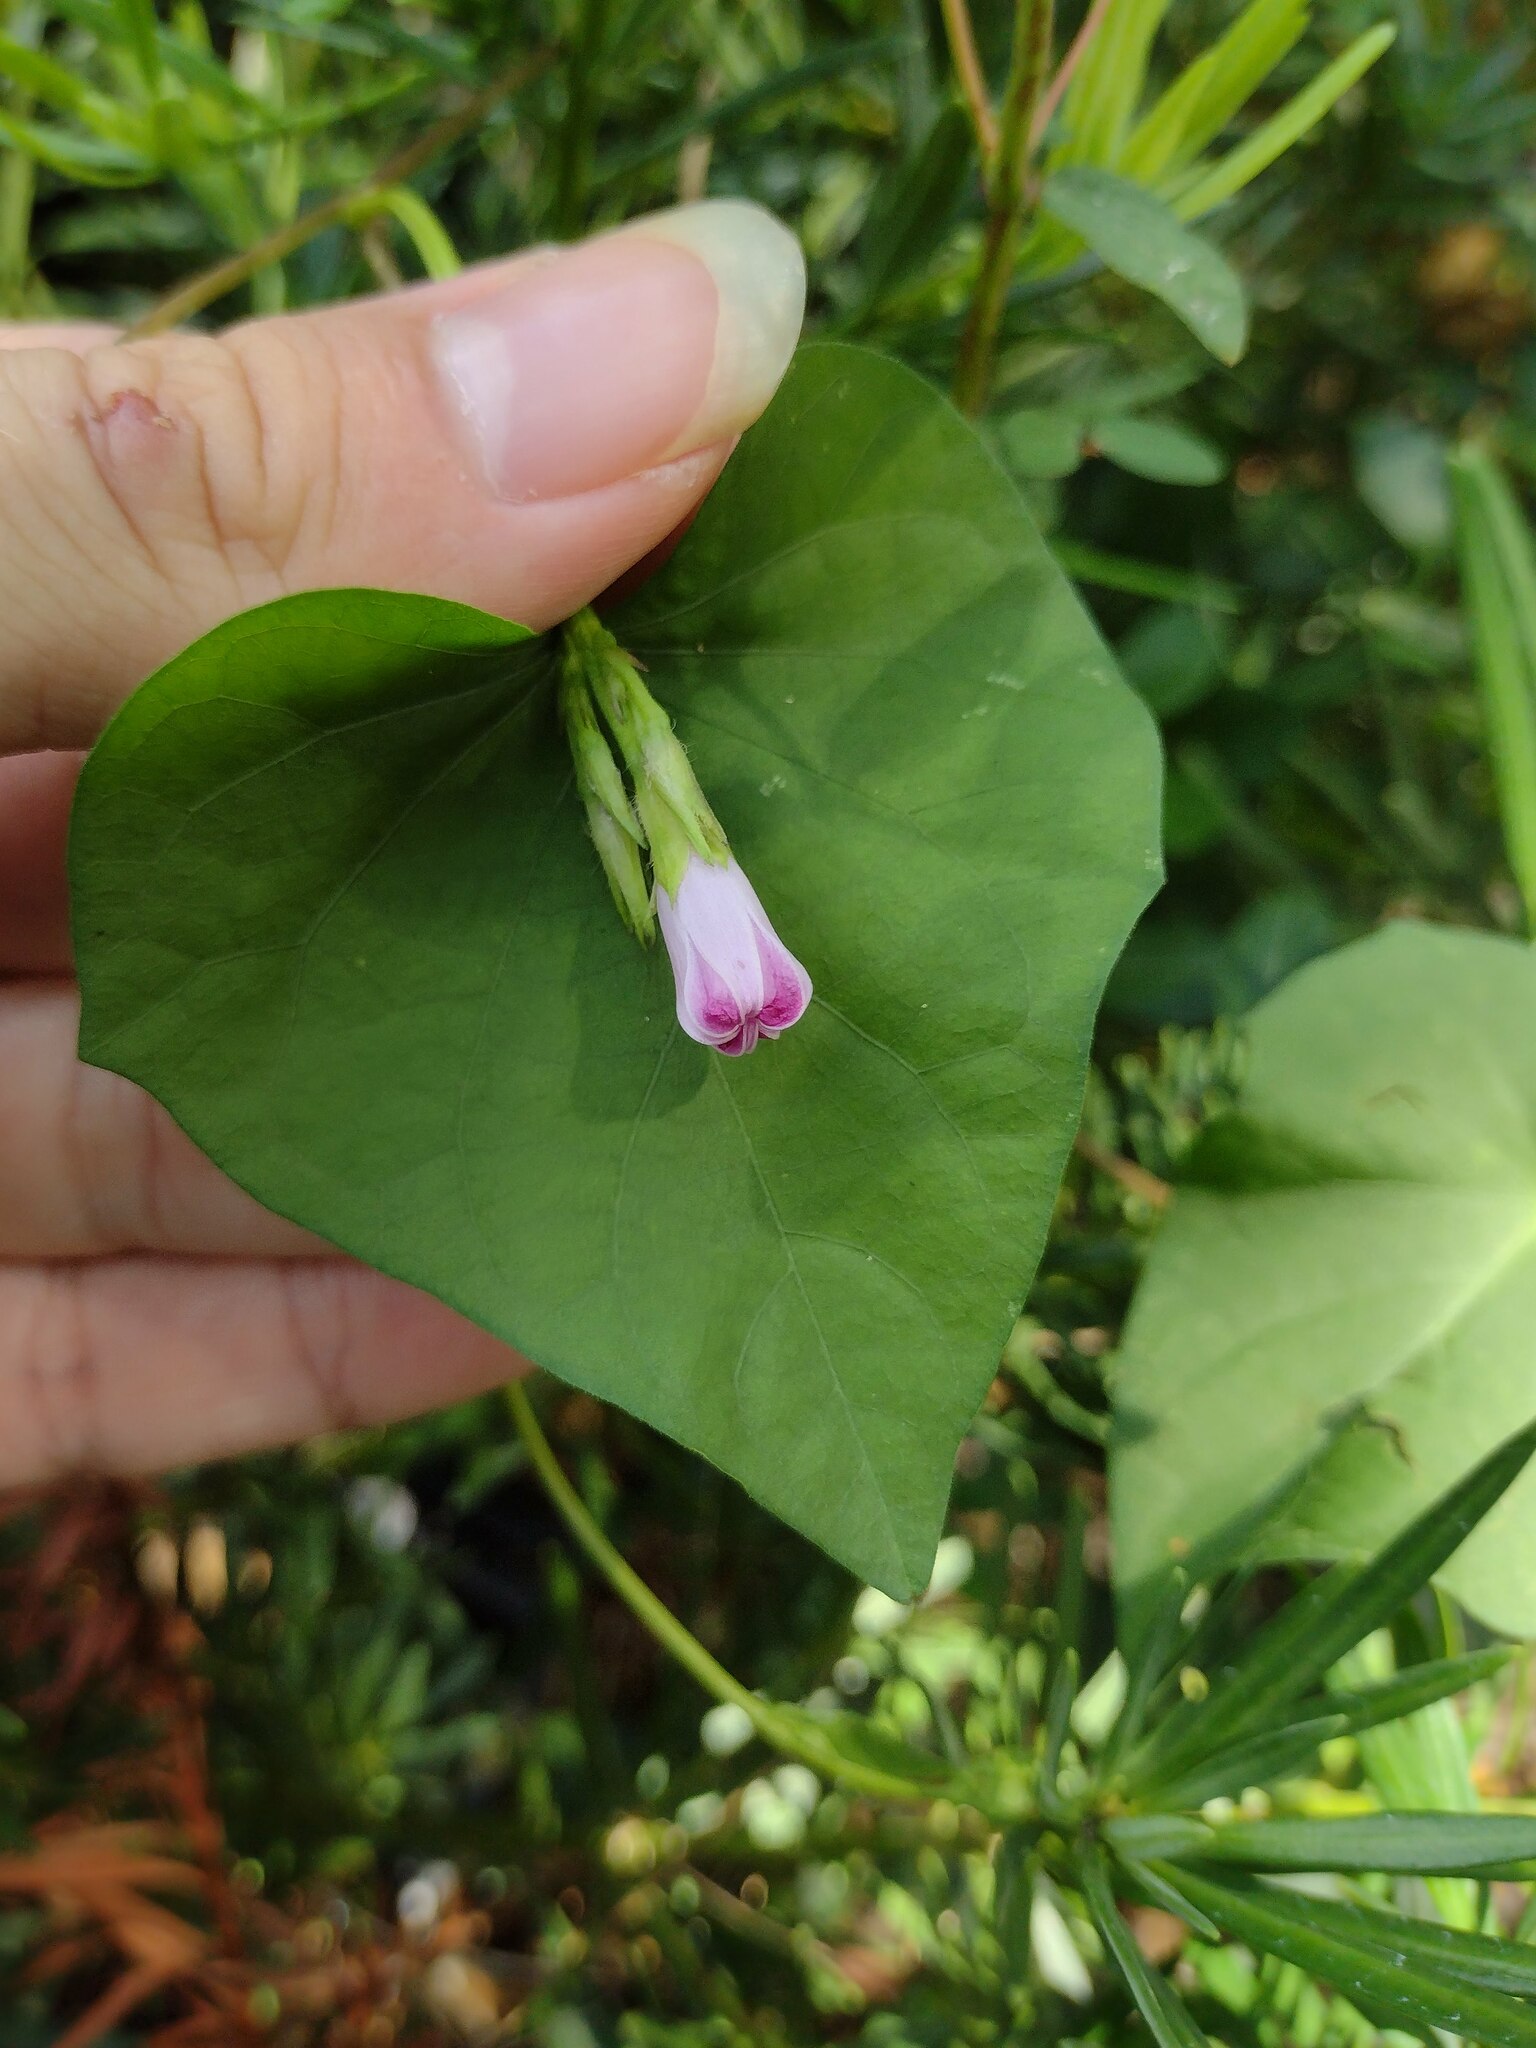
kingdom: Plantae
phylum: Tracheophyta
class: Magnoliopsida
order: Solanales
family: Convolvulaceae
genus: Ipomoea
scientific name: Ipomoea triloba
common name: Little-bell
